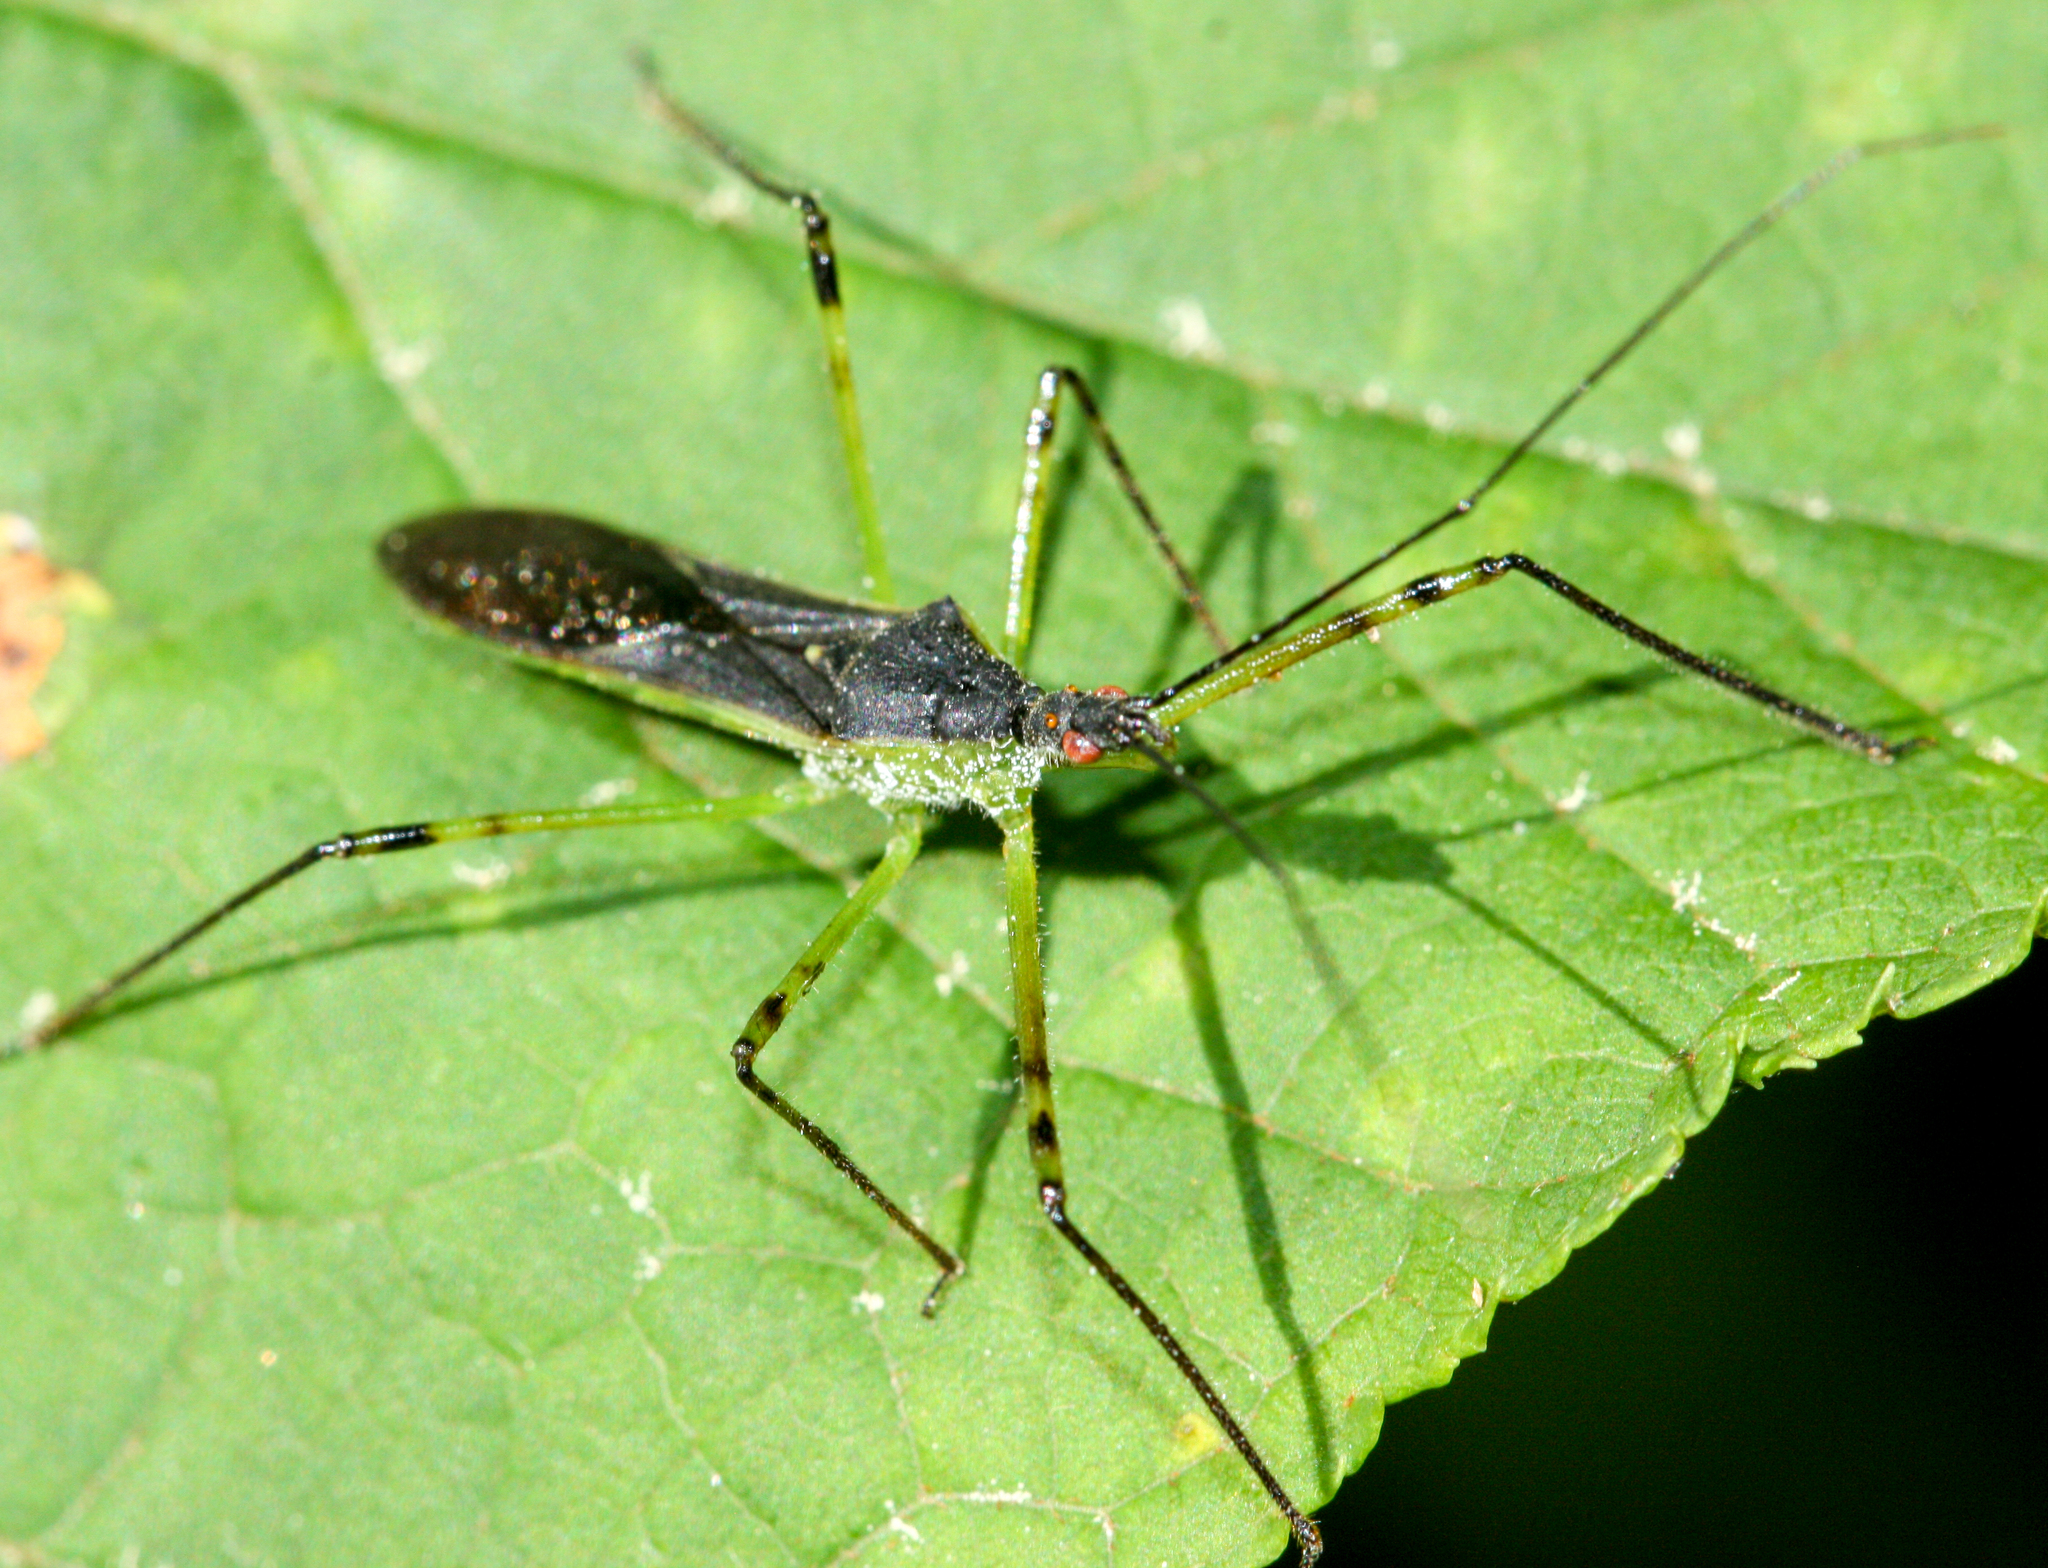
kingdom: Animalia
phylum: Arthropoda
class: Insecta
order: Hemiptera
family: Reduviidae
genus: Zelus
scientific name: Zelus luridus
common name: Pale green assassin bug
